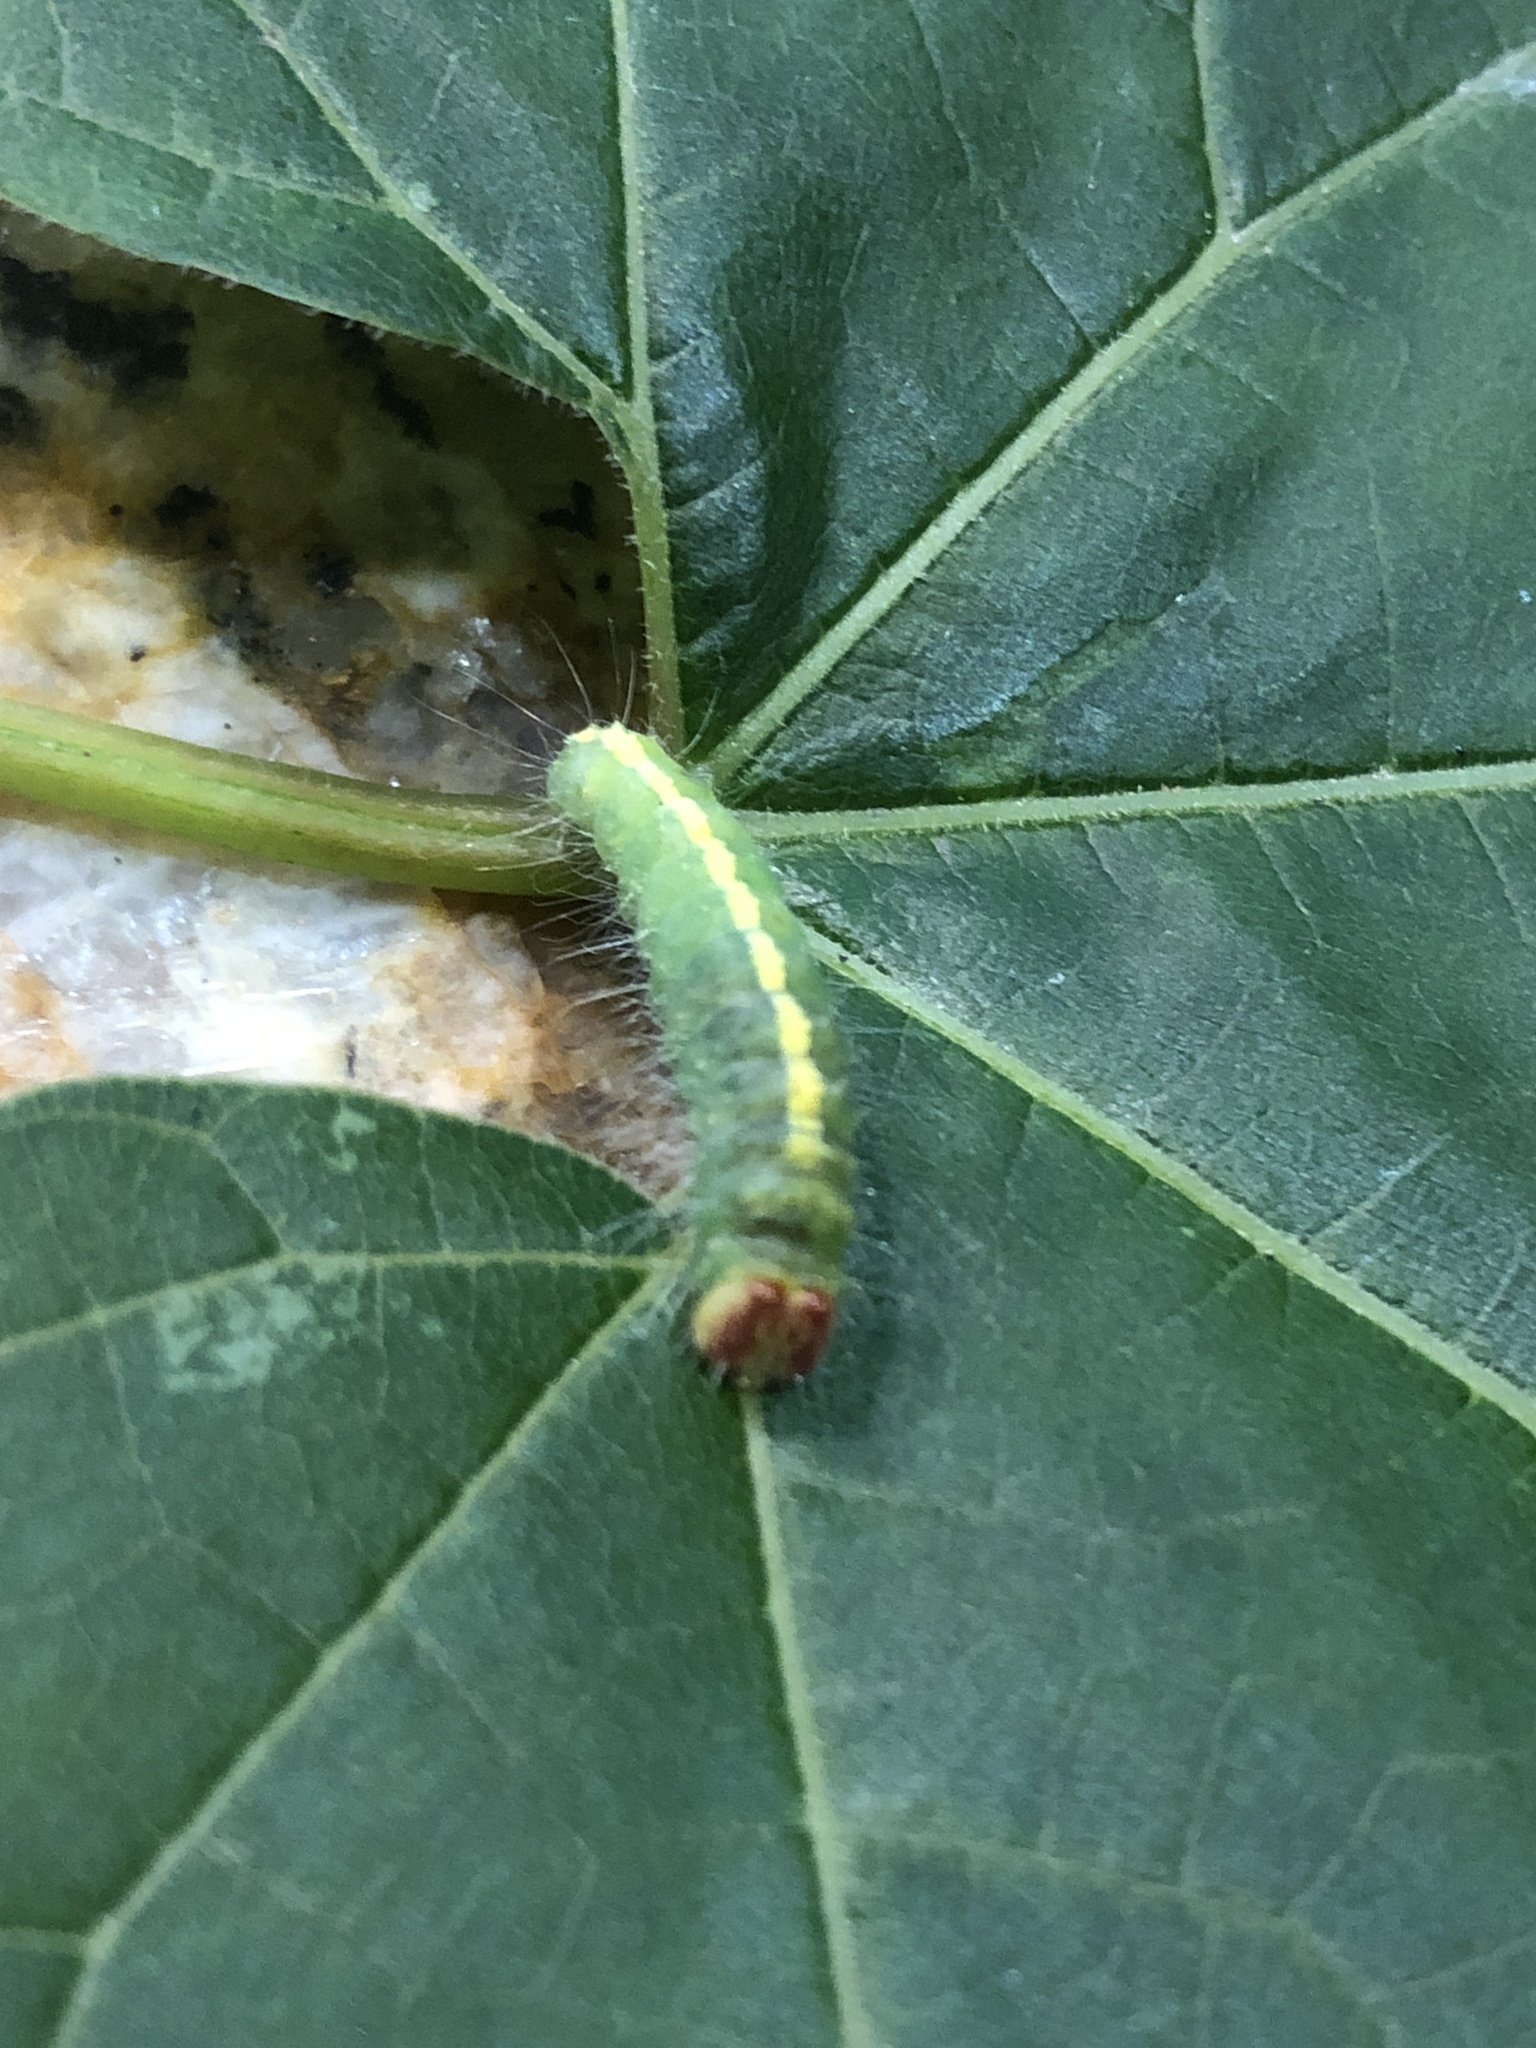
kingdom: Animalia
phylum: Arthropoda
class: Insecta
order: Lepidoptera
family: Noctuidae
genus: Acronicta
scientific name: Acronicta hasta
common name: Cherry dagger
